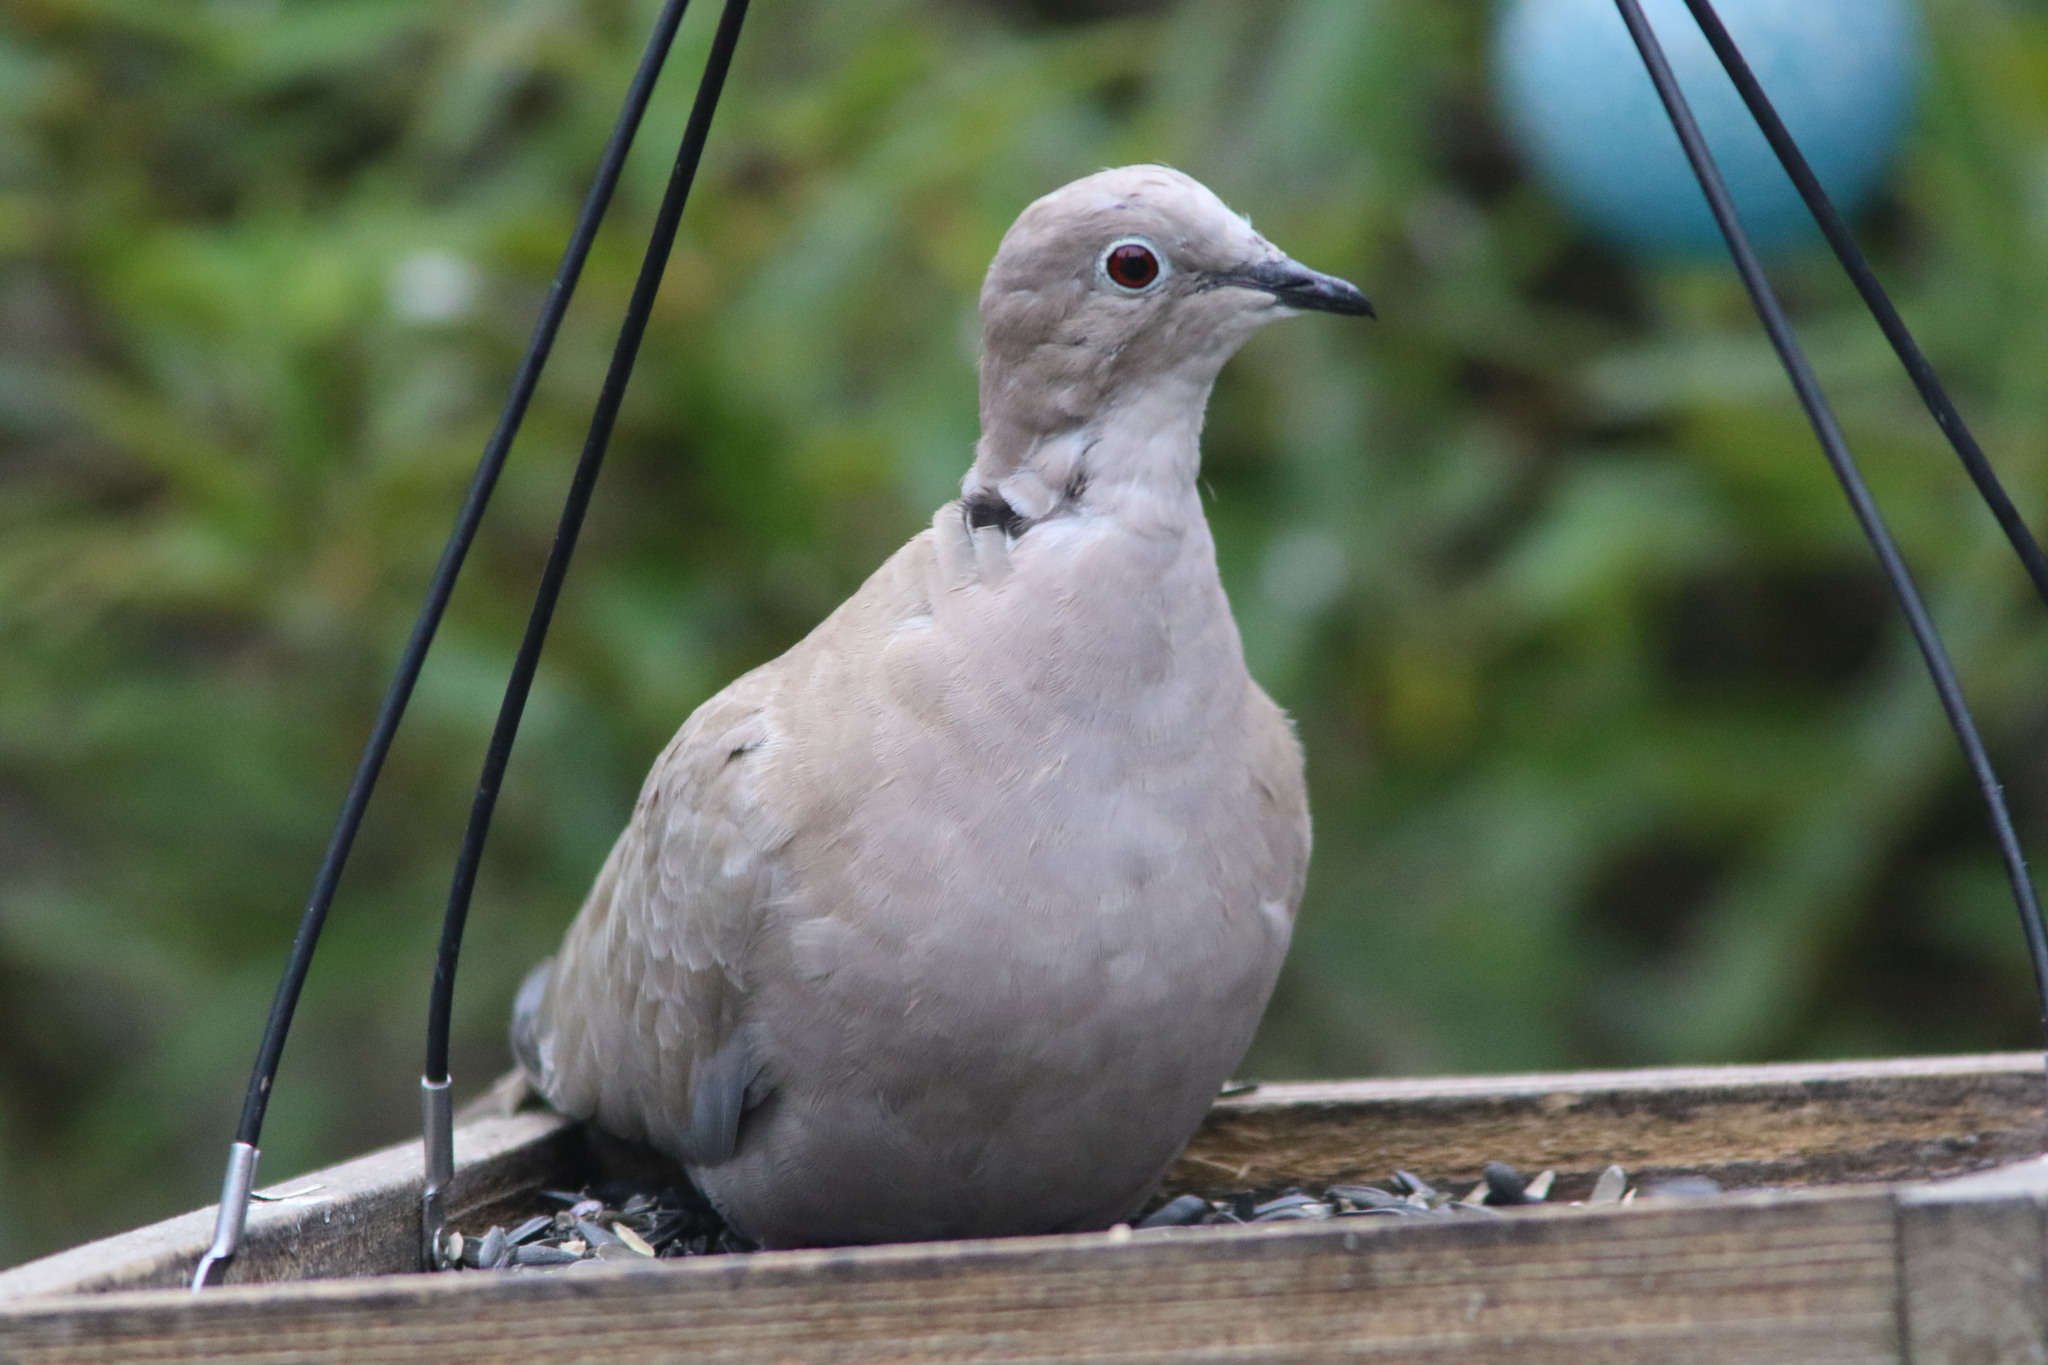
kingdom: Animalia
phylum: Chordata
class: Aves
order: Columbiformes
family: Columbidae
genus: Streptopelia
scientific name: Streptopelia decaocto
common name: Eurasian collared dove
